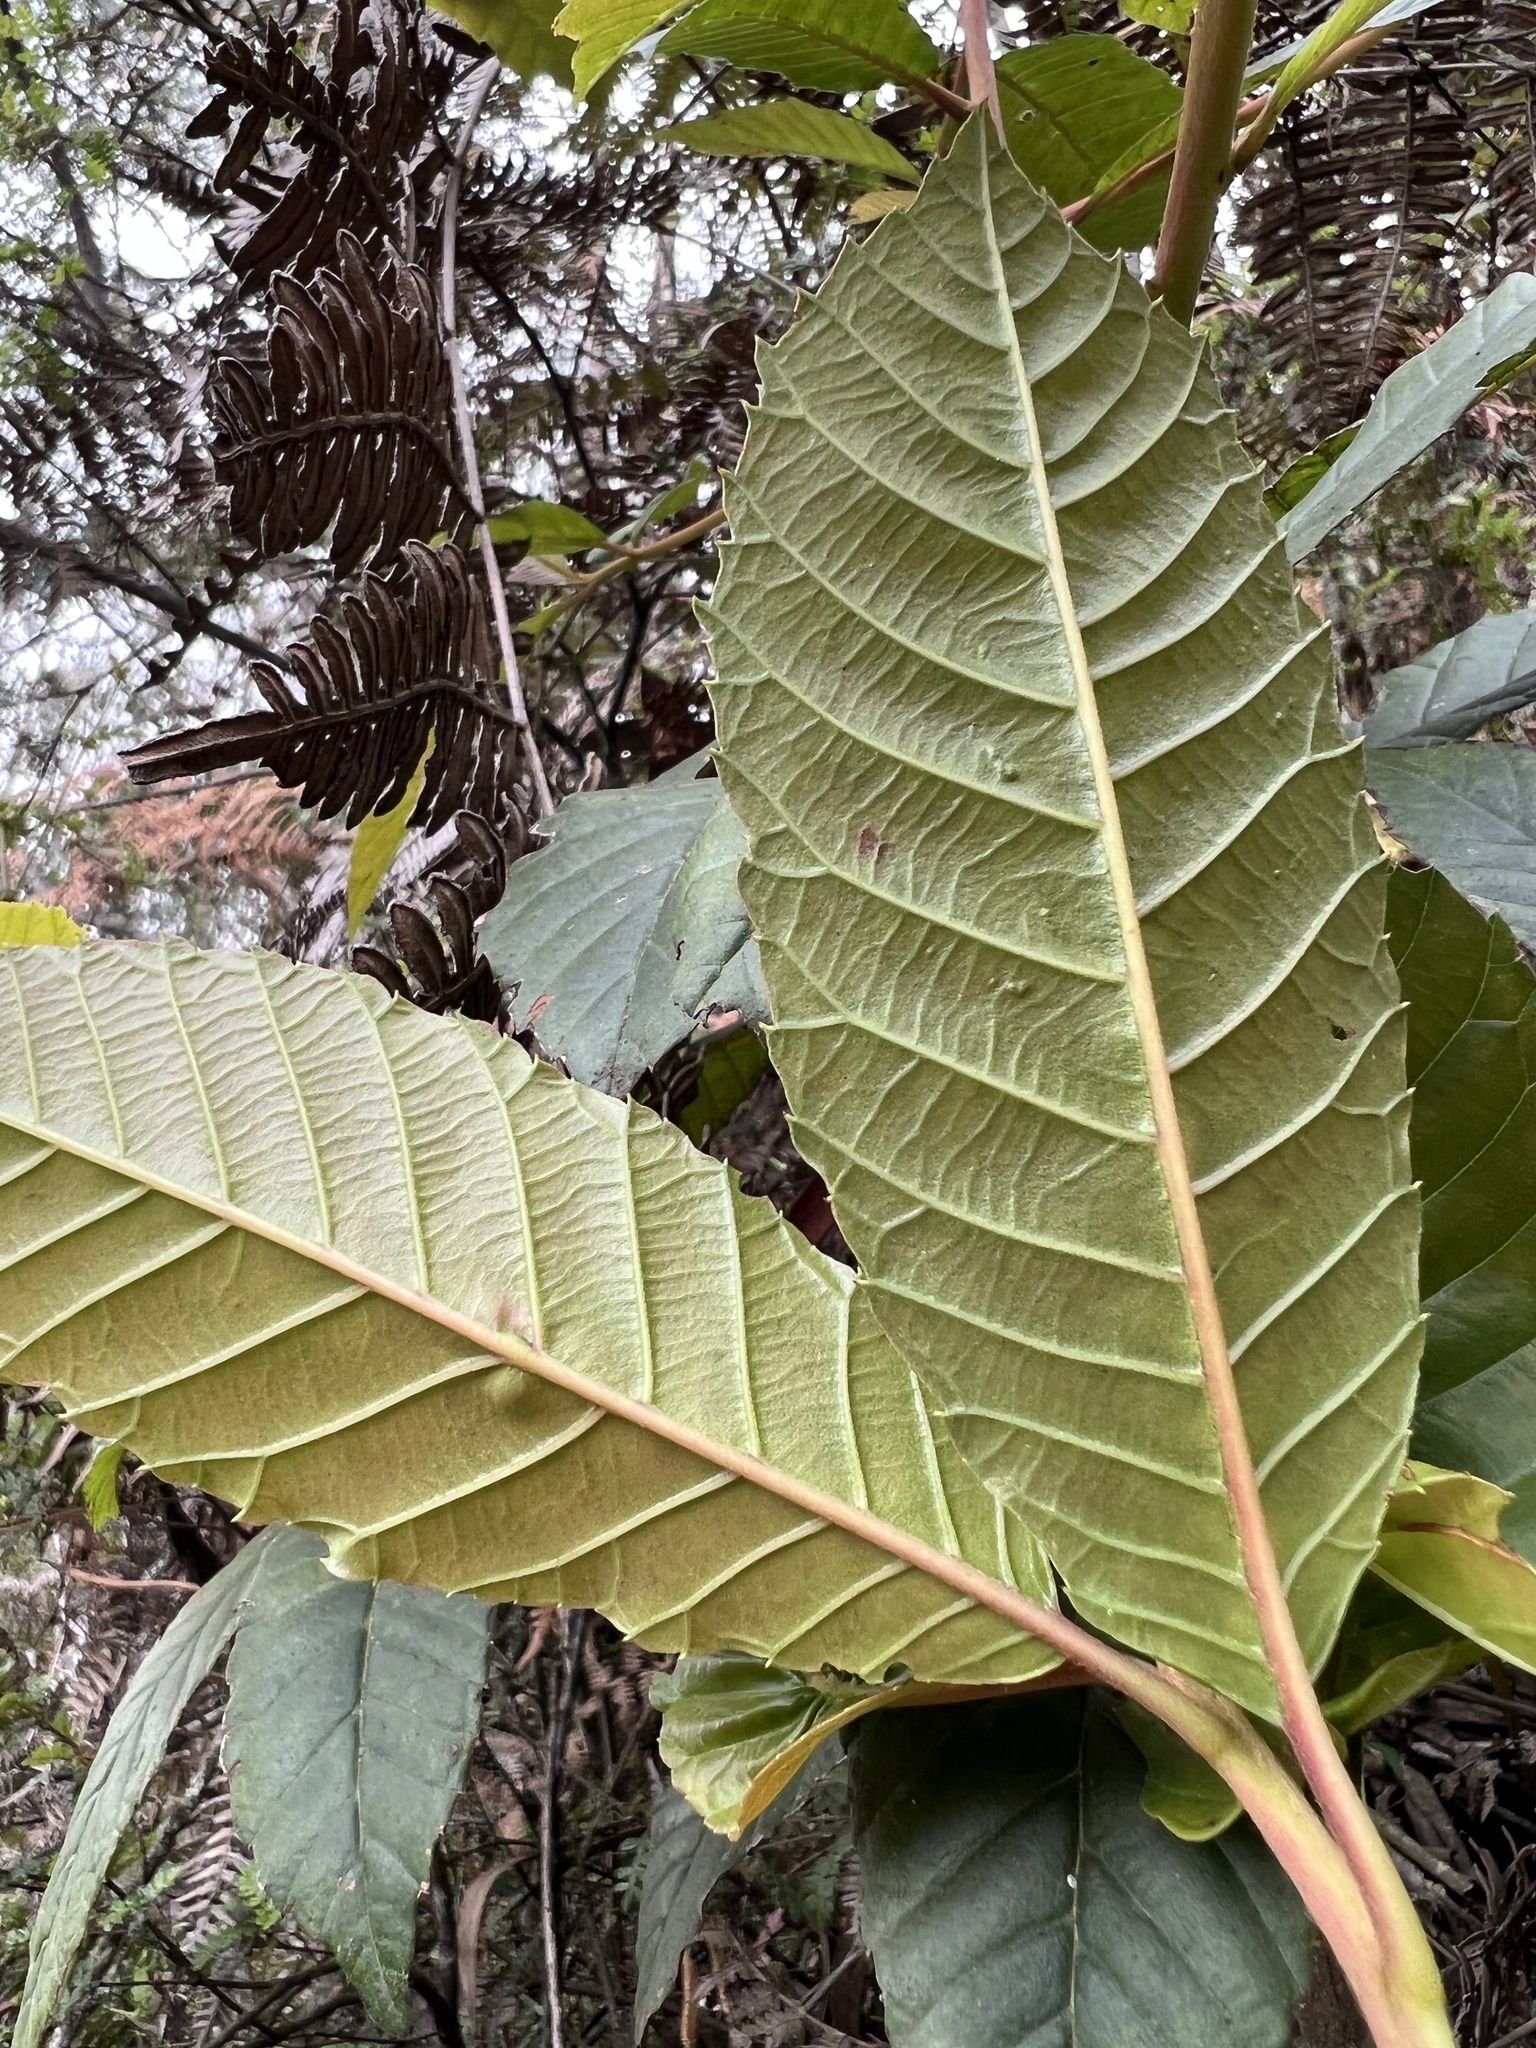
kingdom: Plantae
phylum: Tracheophyta
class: Magnoliopsida
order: Ericales
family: Clethraceae
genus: Clethra
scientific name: Clethra fagifolia
